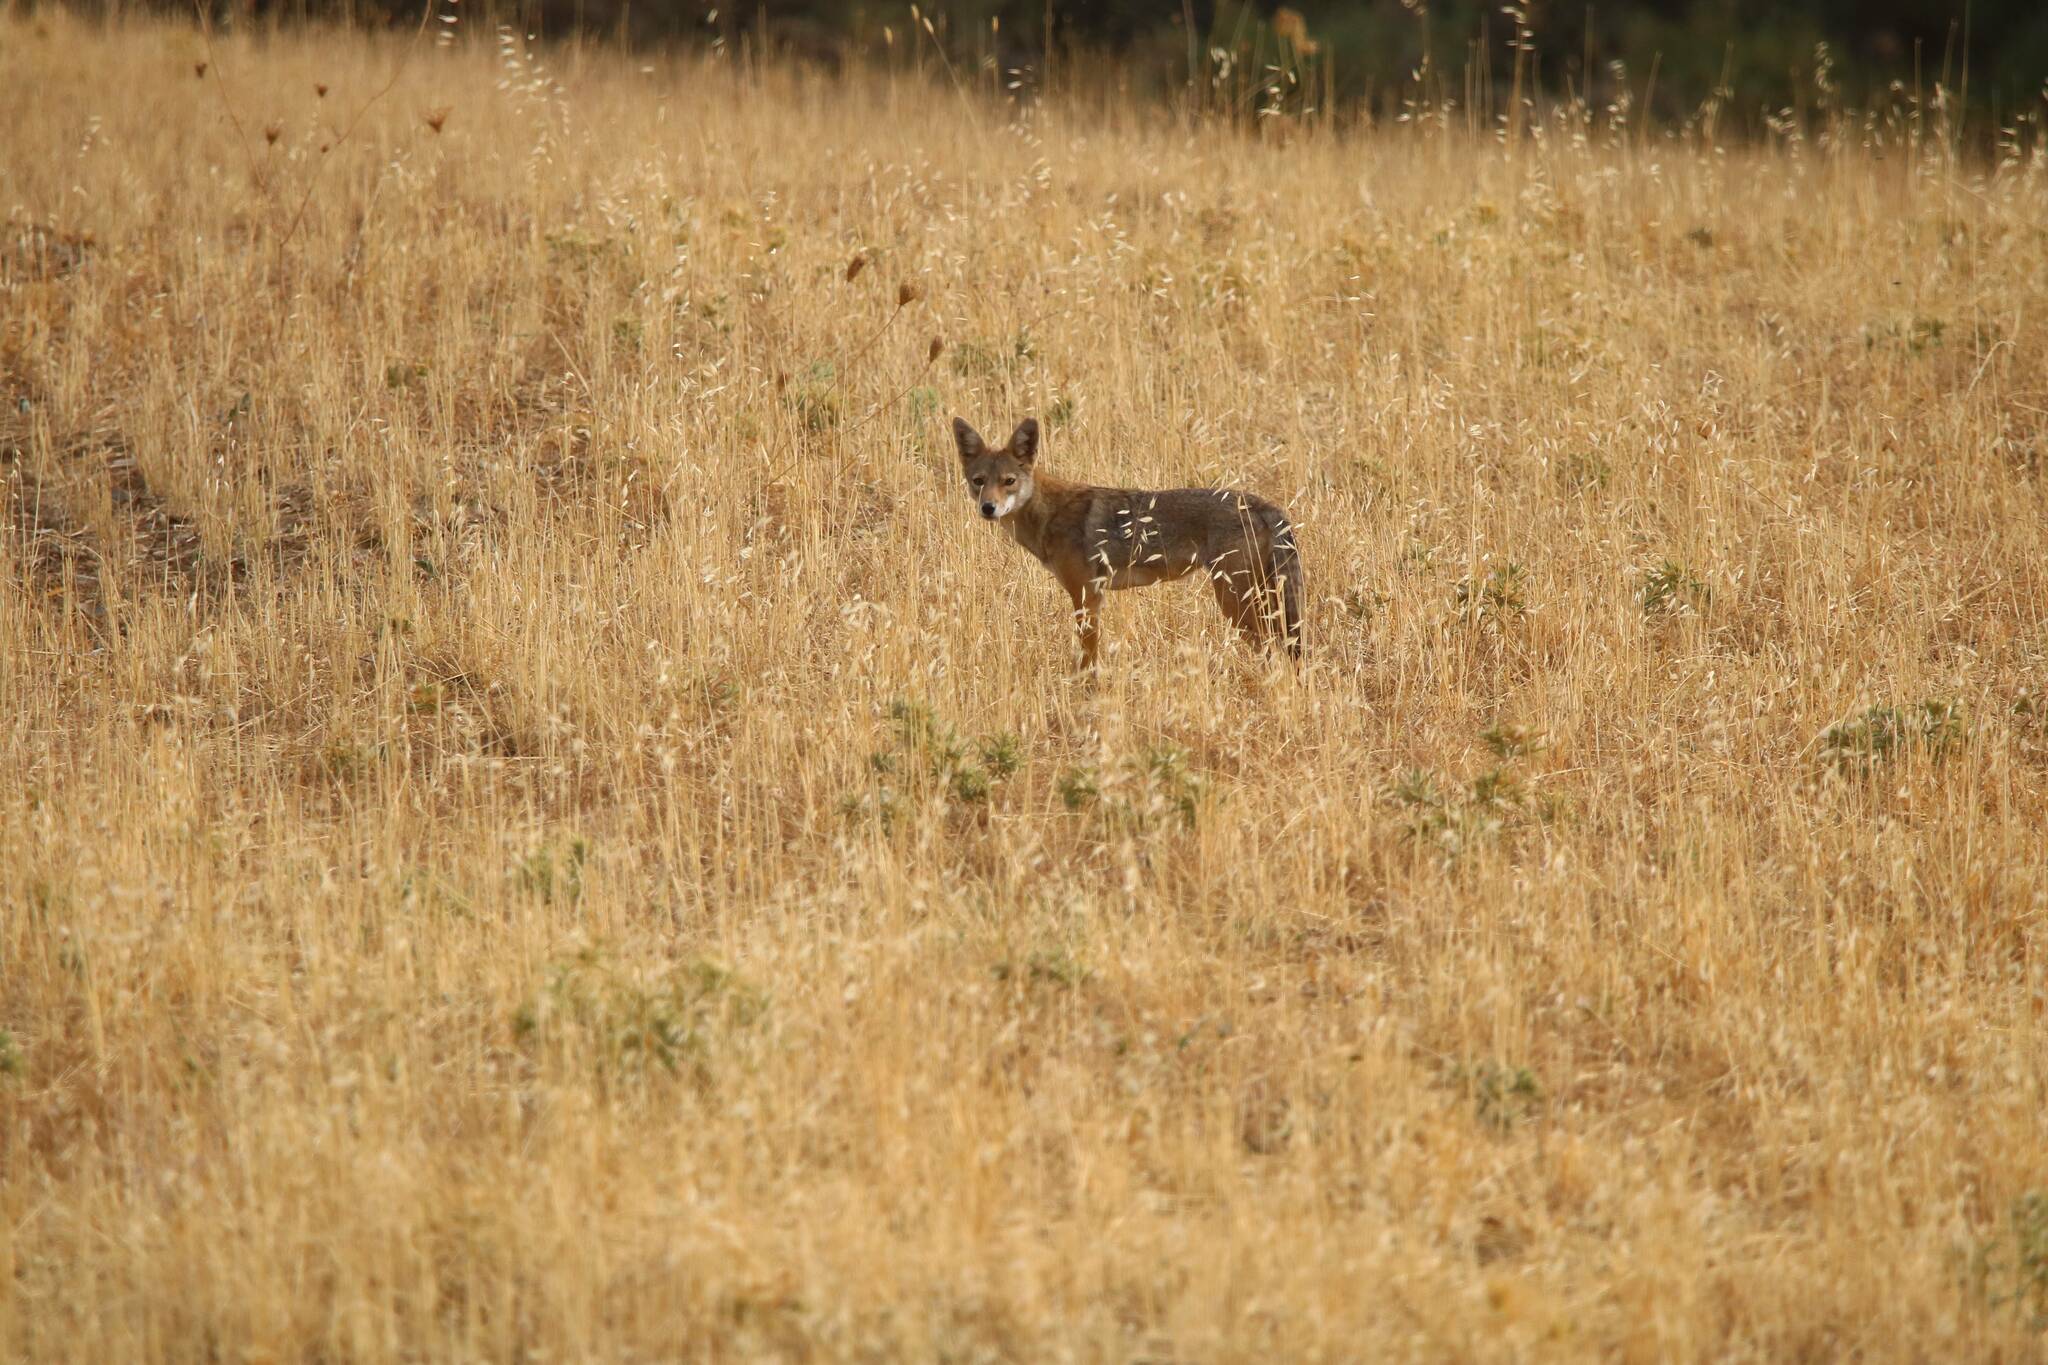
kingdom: Animalia
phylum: Chordata
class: Mammalia
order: Carnivora
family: Canidae
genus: Canis
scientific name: Canis lupaster
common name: African golden wolf
